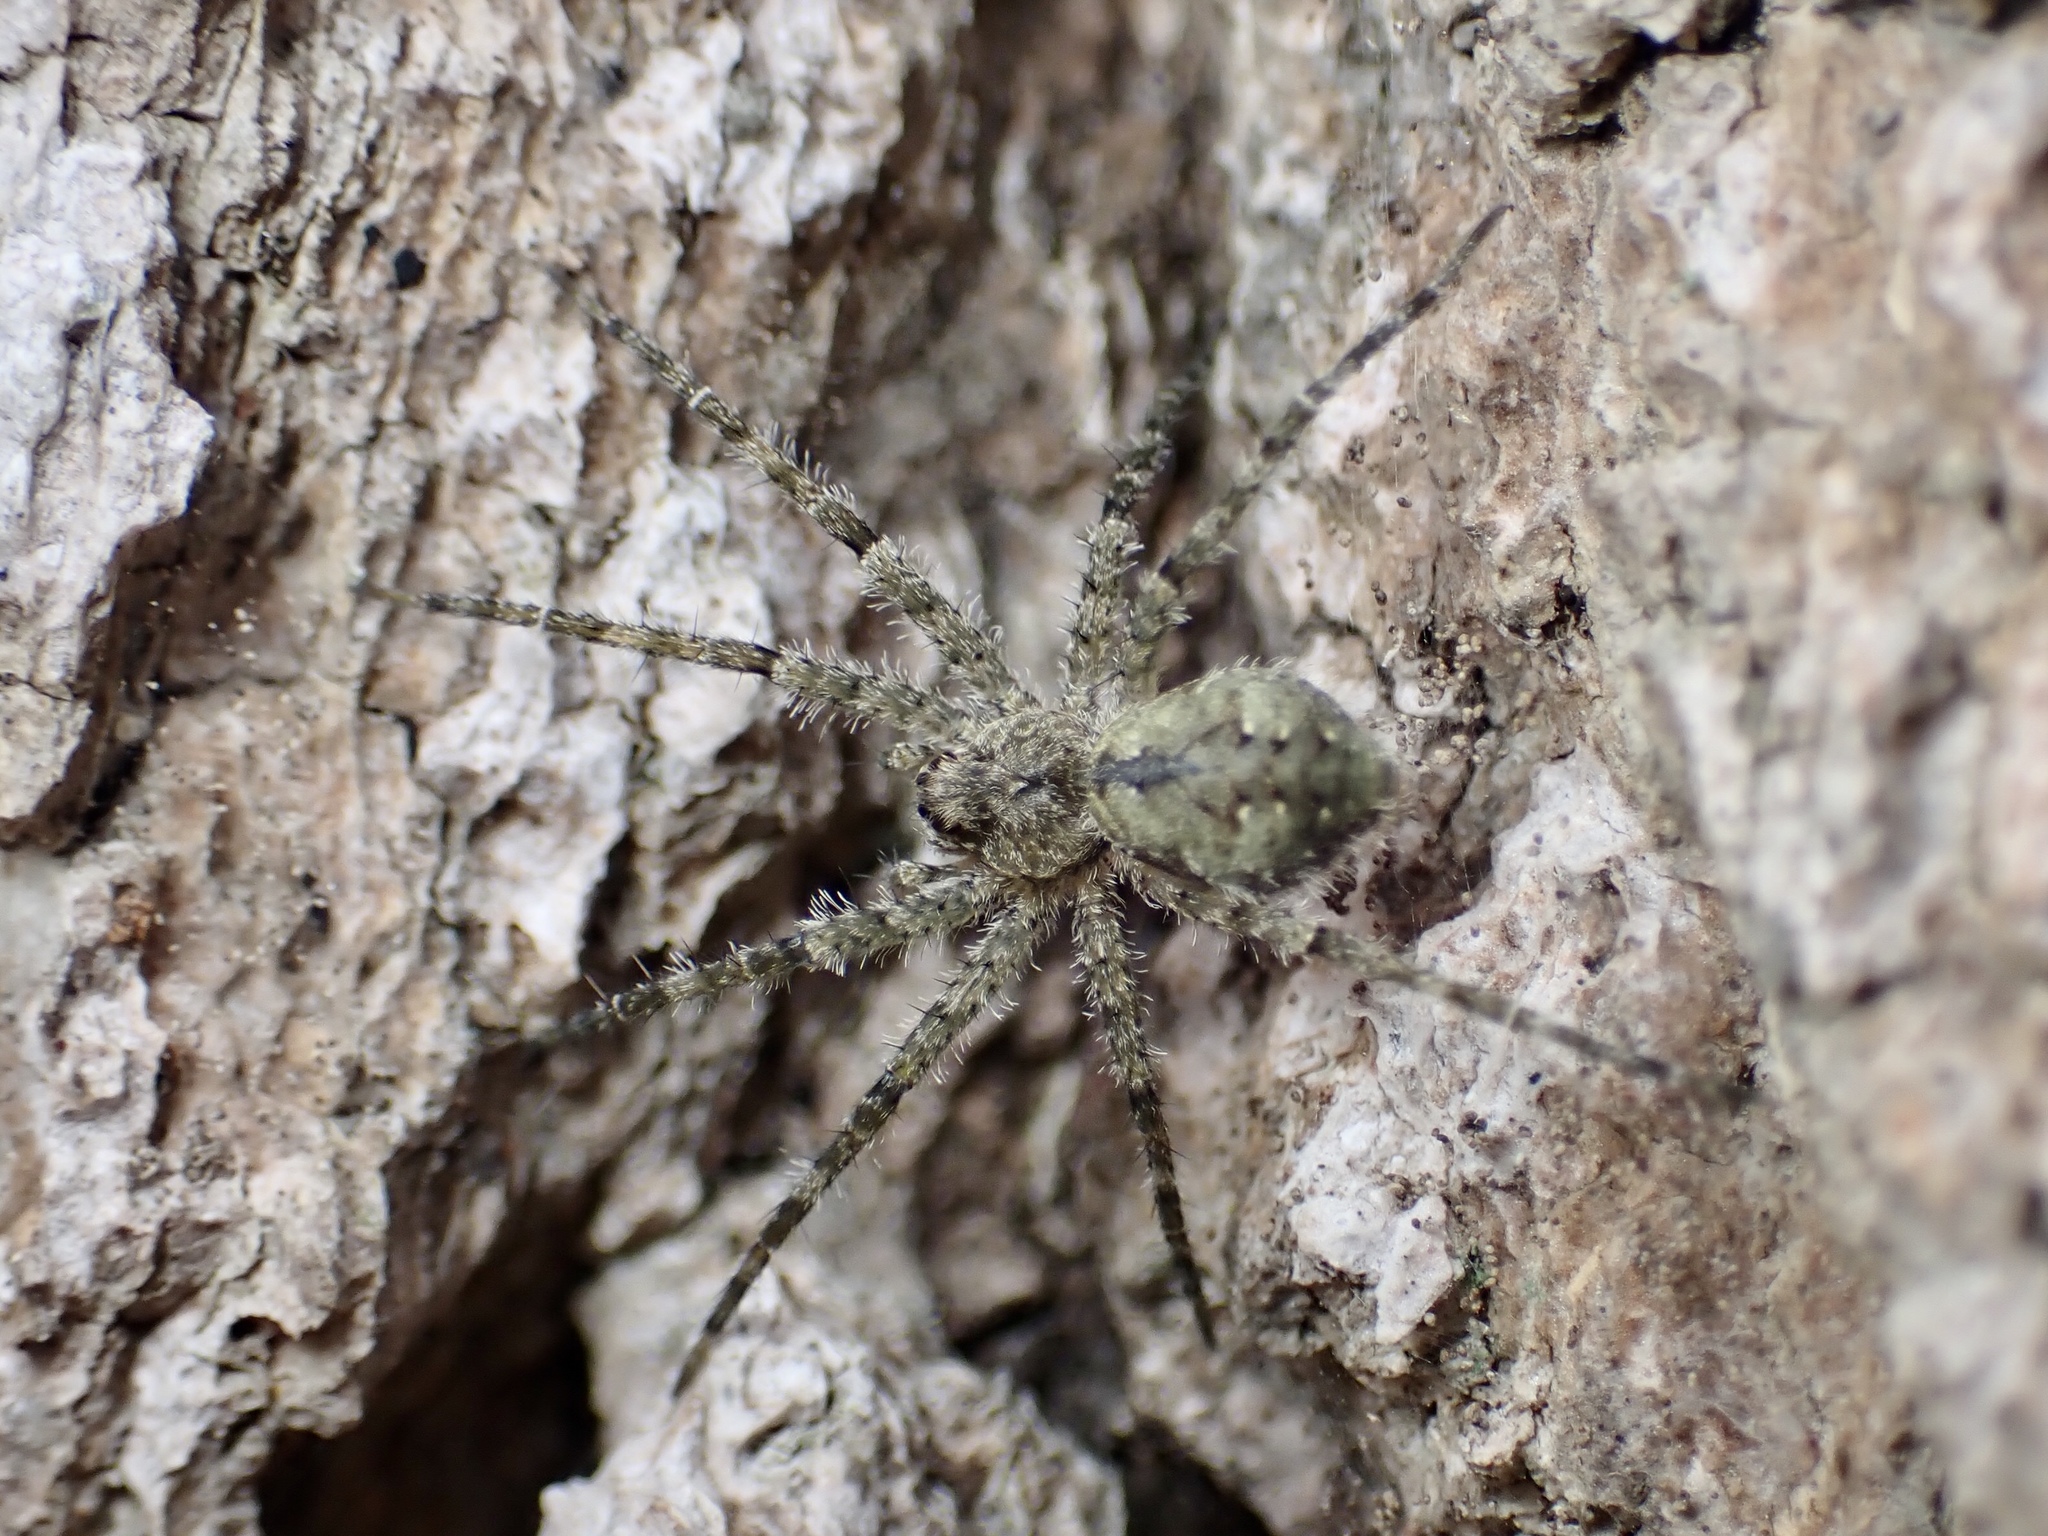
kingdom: Animalia
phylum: Arthropoda
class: Arachnida
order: Araneae
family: Pisauridae
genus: Dolomedes
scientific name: Dolomedes albineus
